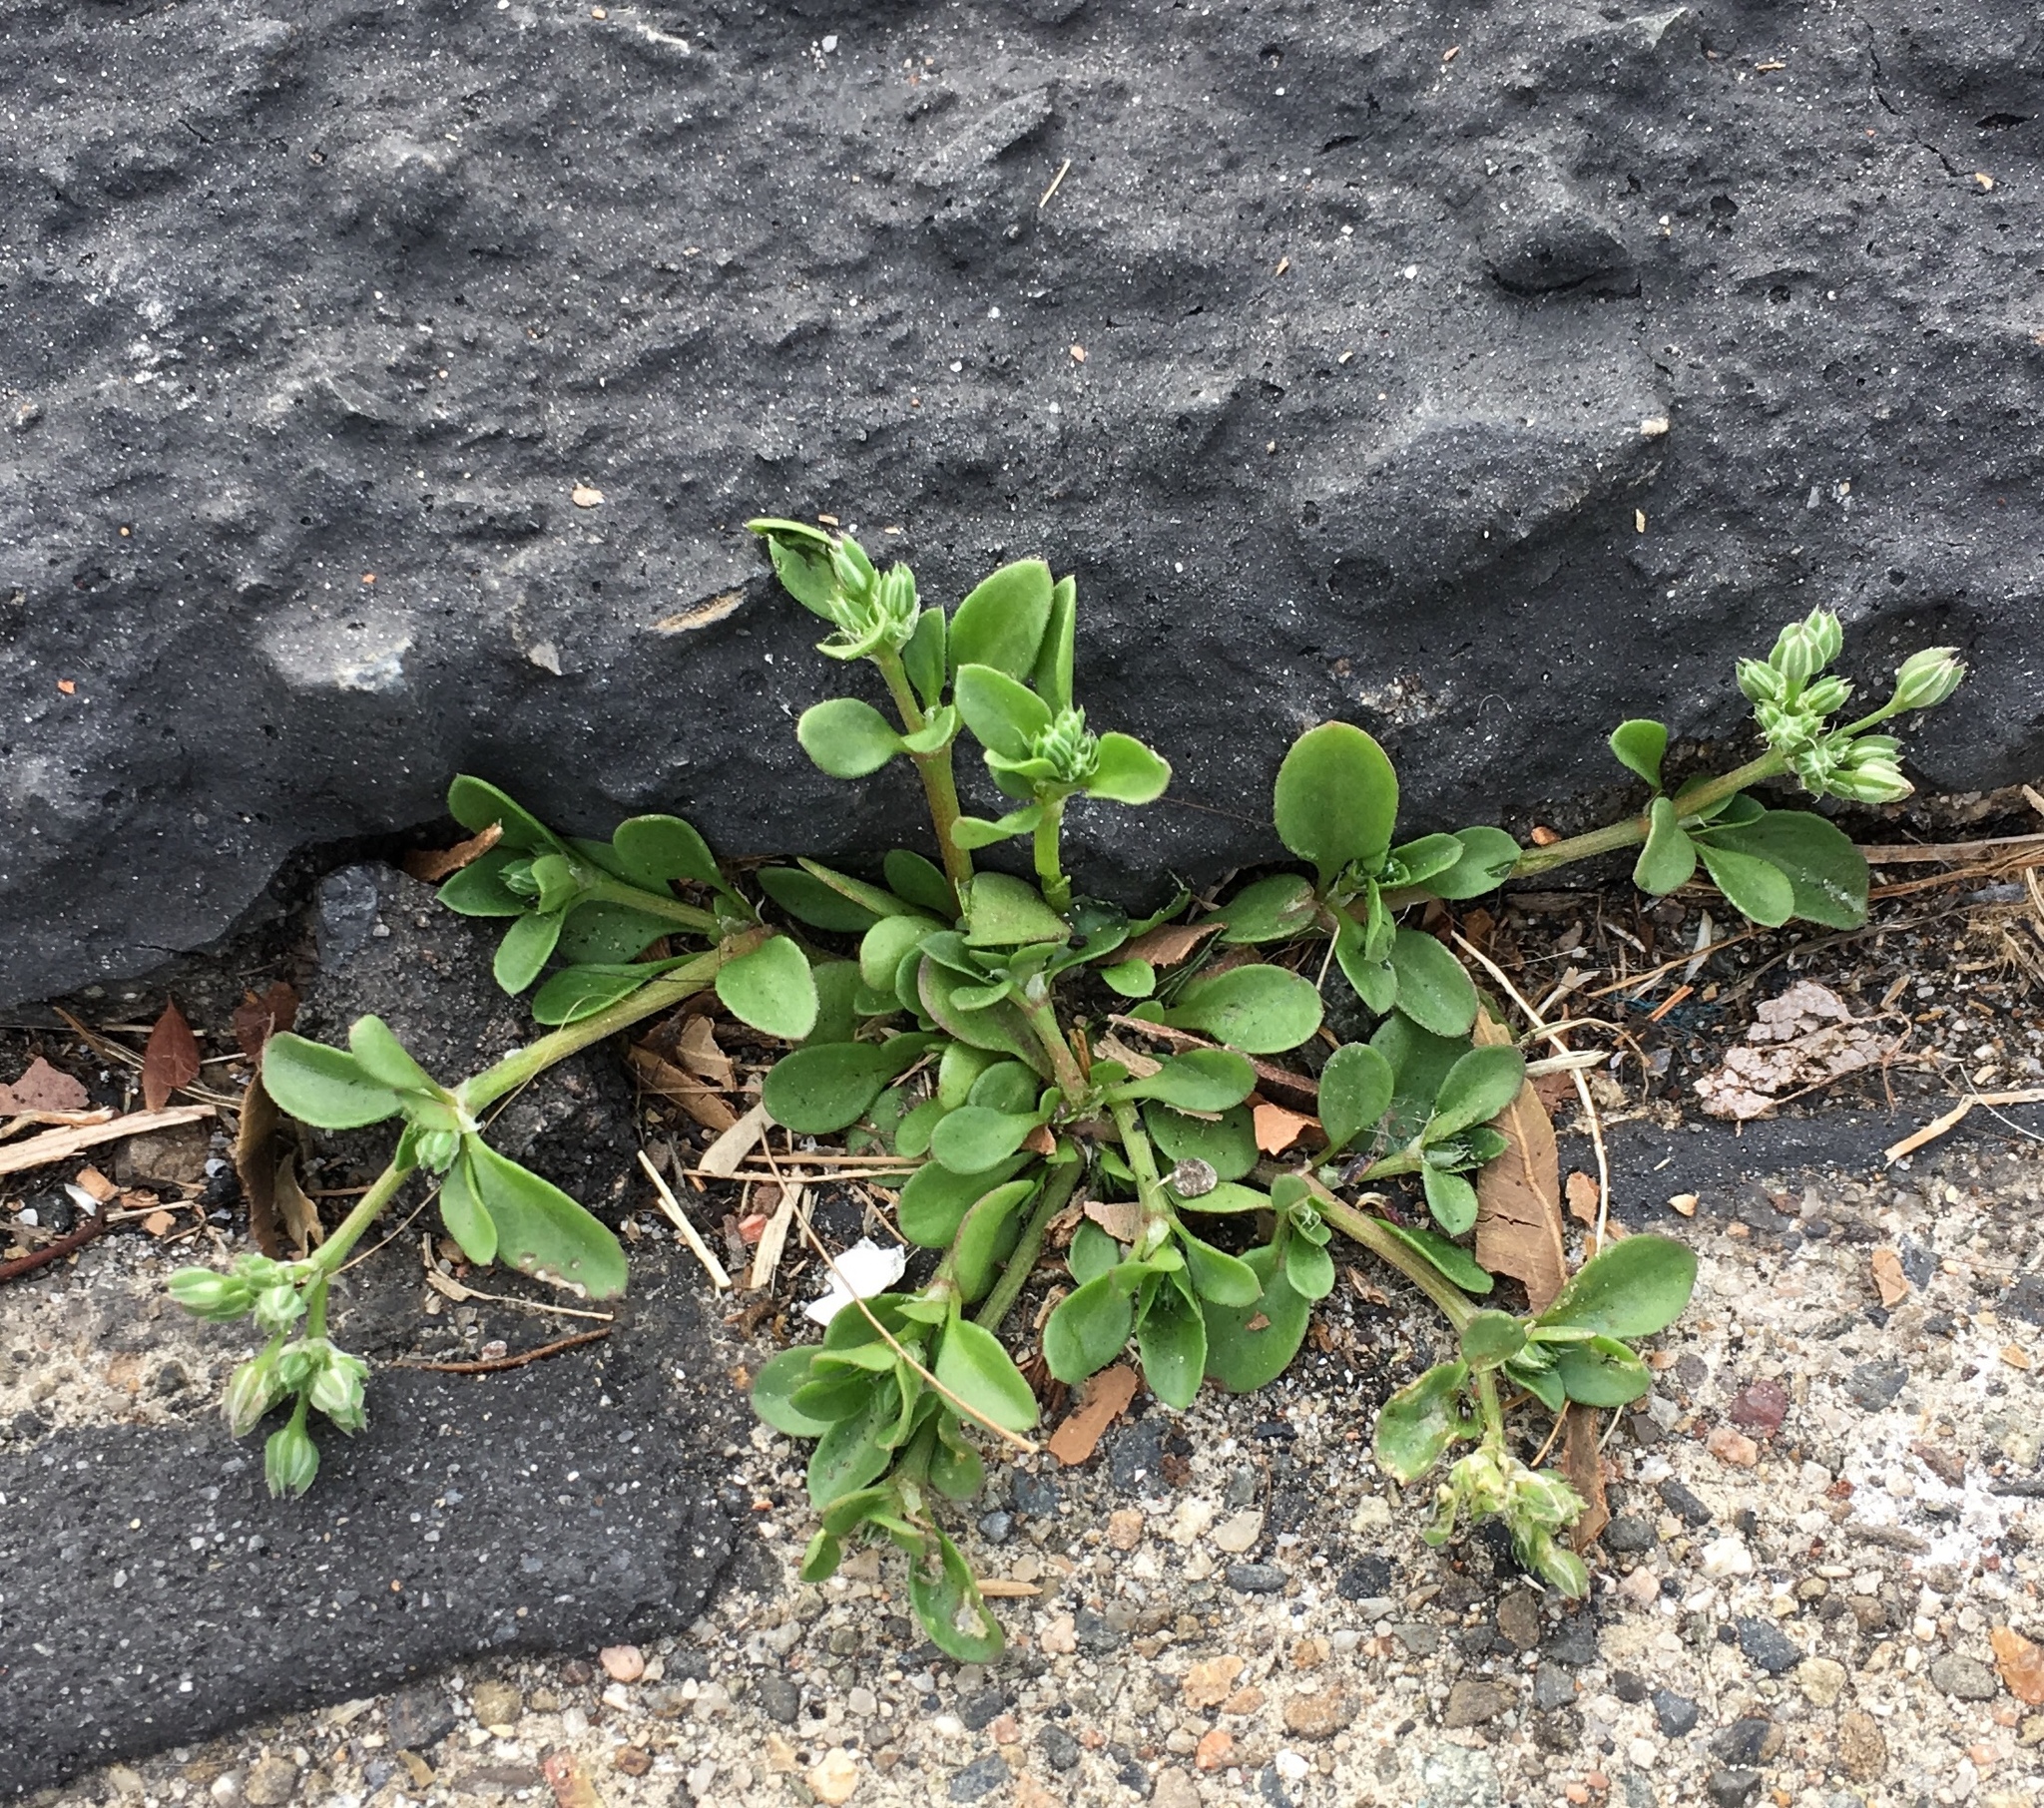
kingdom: Plantae
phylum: Tracheophyta
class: Magnoliopsida
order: Caryophyllales
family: Caryophyllaceae
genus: Polycarpon
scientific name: Polycarpon tetraphyllum
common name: Four-leaved all-seed
